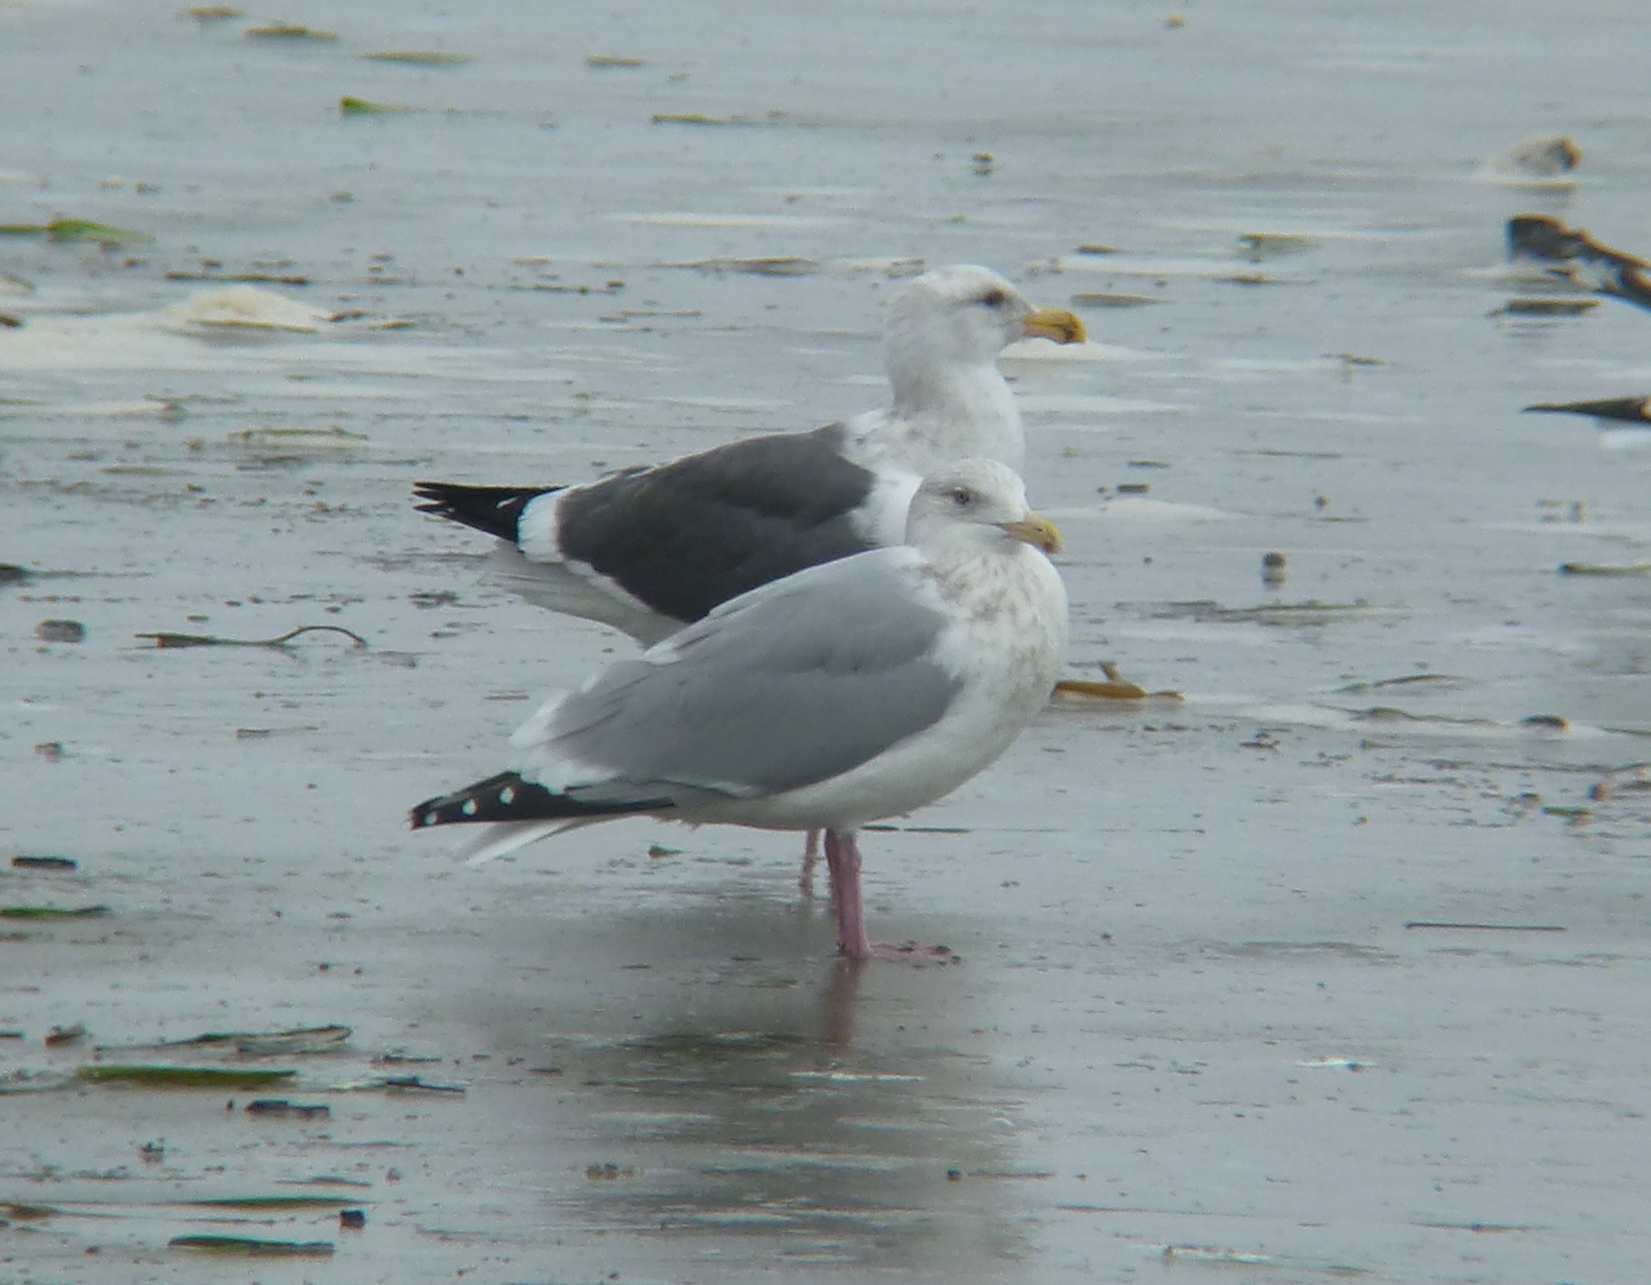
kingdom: Animalia
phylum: Chordata
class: Aves
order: Charadriiformes
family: Laridae
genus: Larus
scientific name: Larus occidentalis
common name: Western gull
